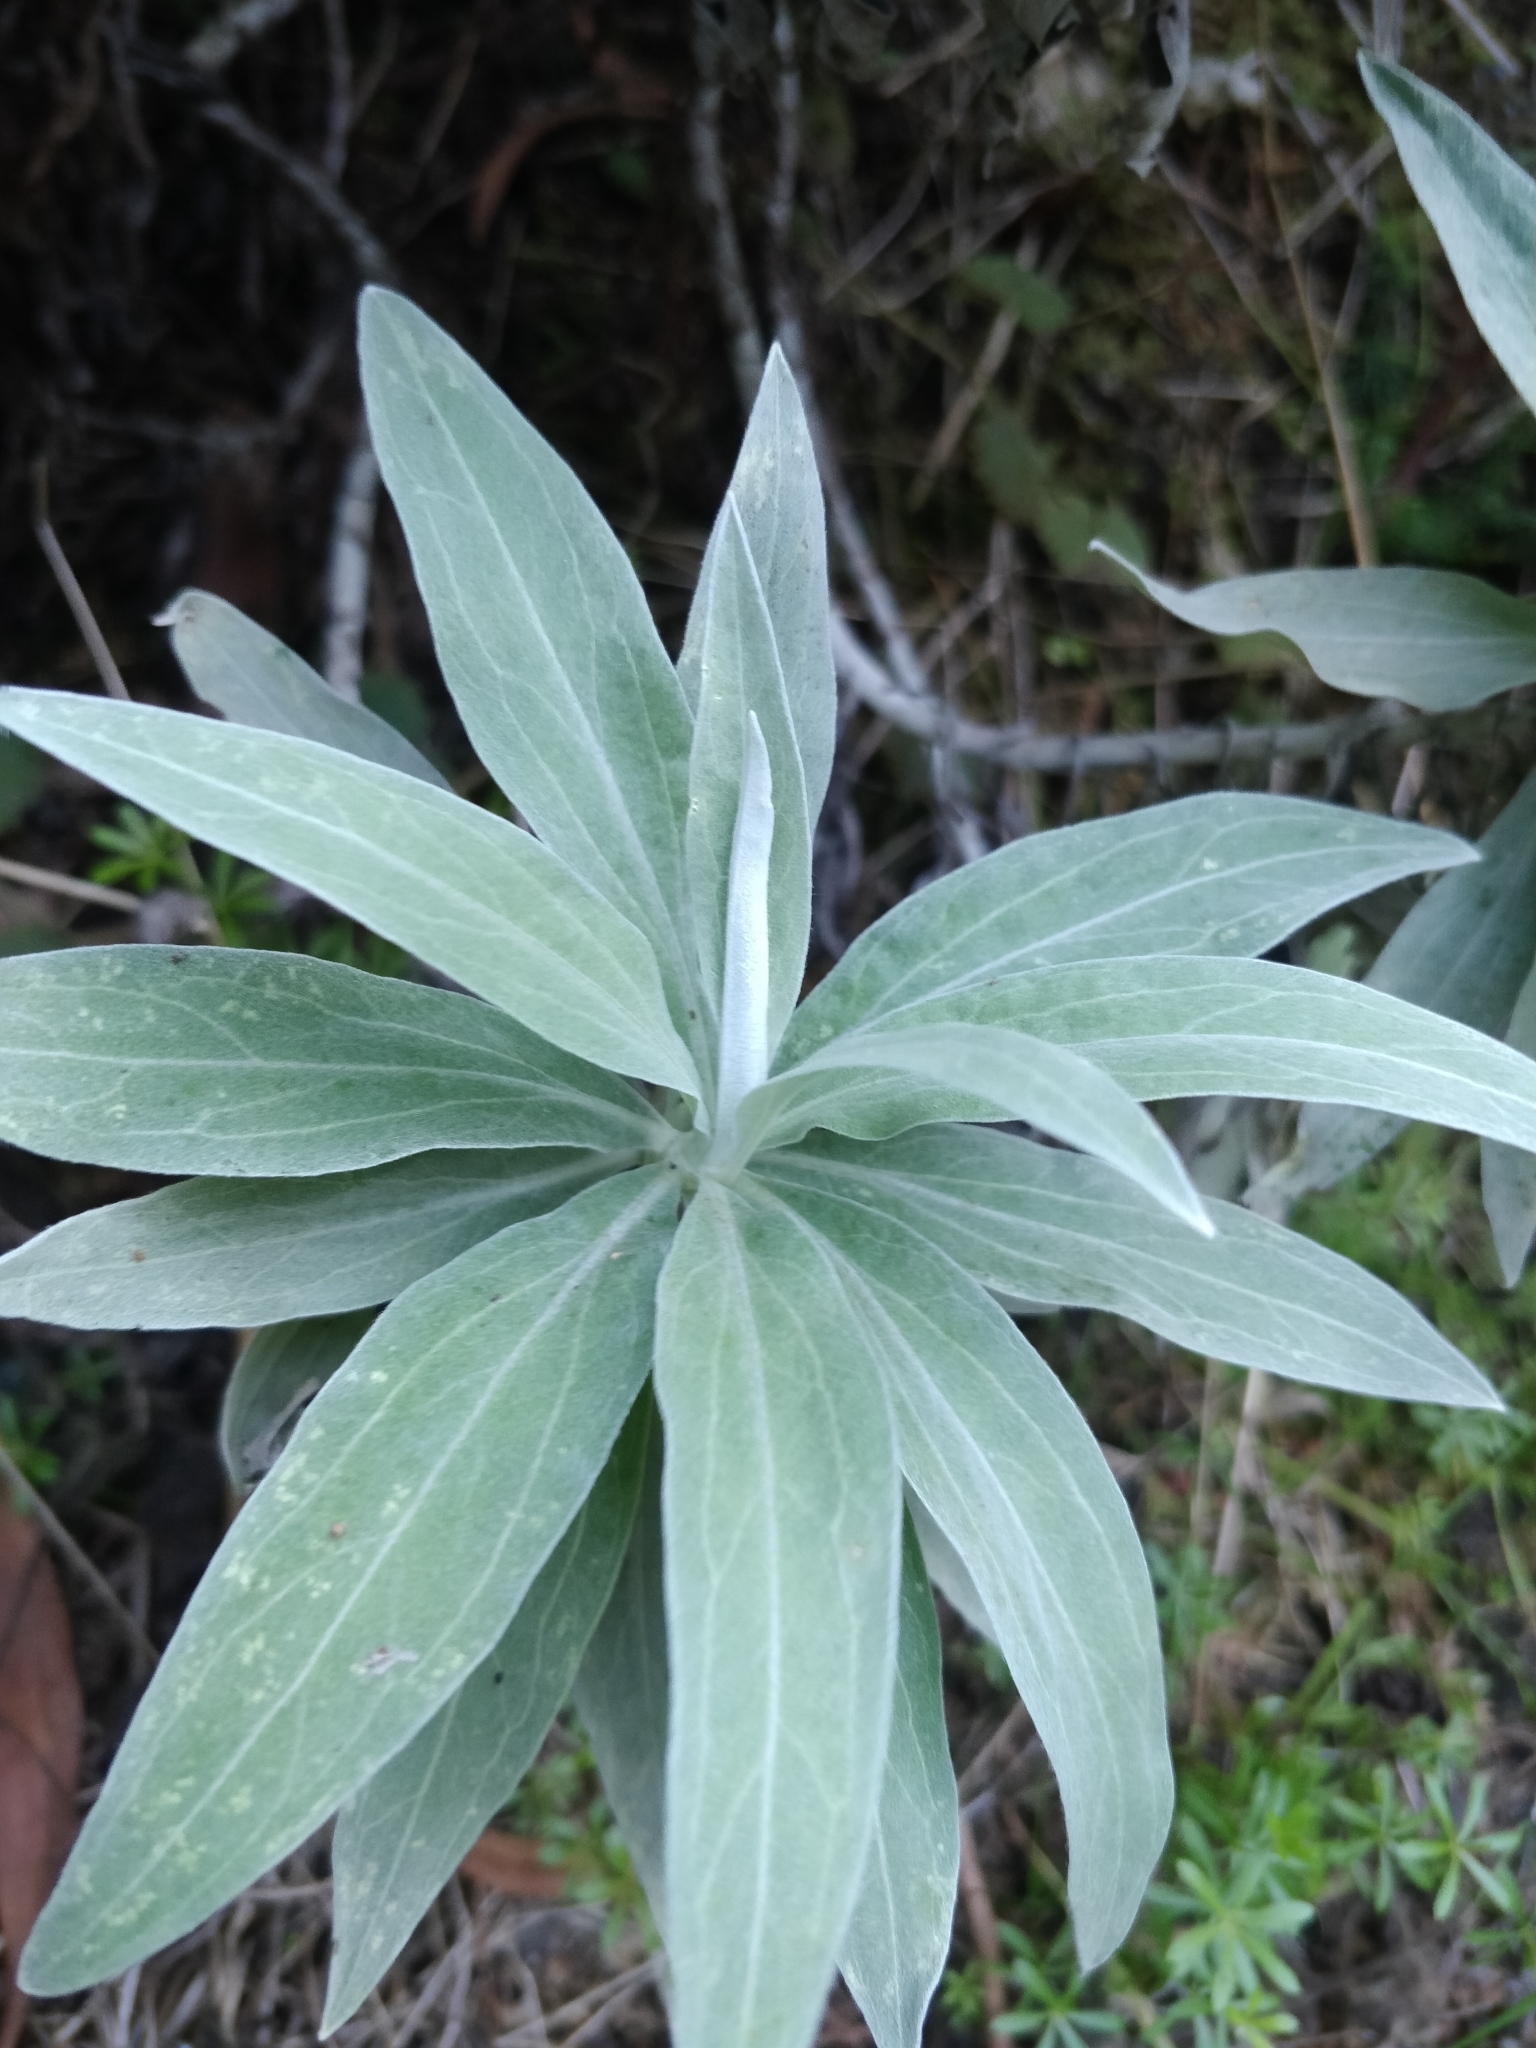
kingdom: Plantae
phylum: Tracheophyta
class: Magnoliopsida
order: Asterales
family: Asteraceae
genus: Helichrysum
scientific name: Helichrysum melaleucum
